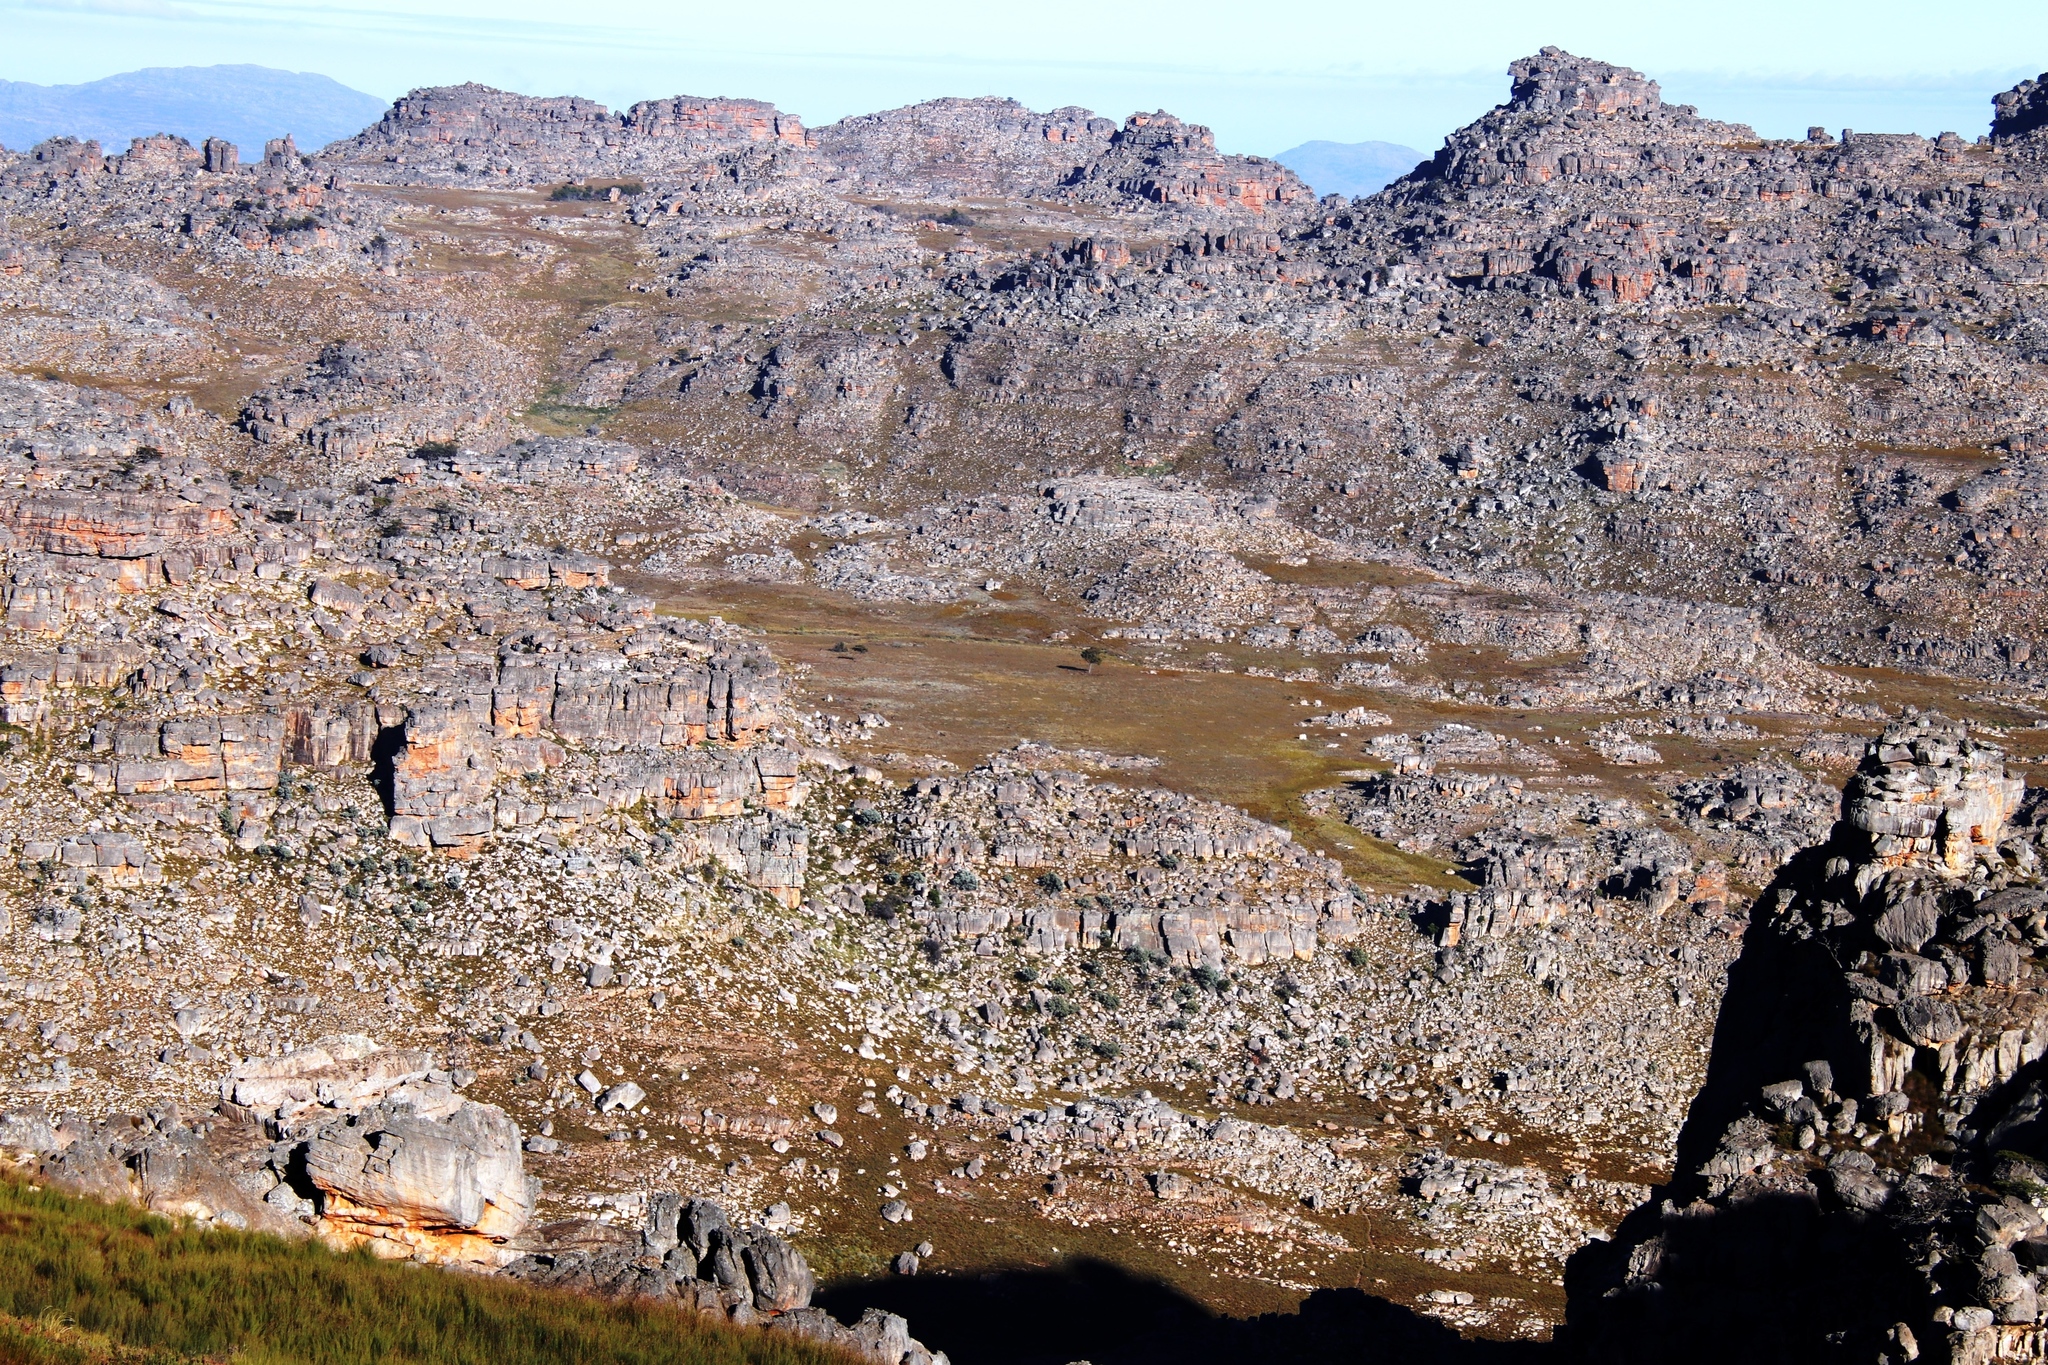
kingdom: Plantae
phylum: Tracheophyta
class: Pinopsida
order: Pinales
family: Cupressaceae
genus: Widdringtonia
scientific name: Widdringtonia nodiflora
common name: Cape cypress
